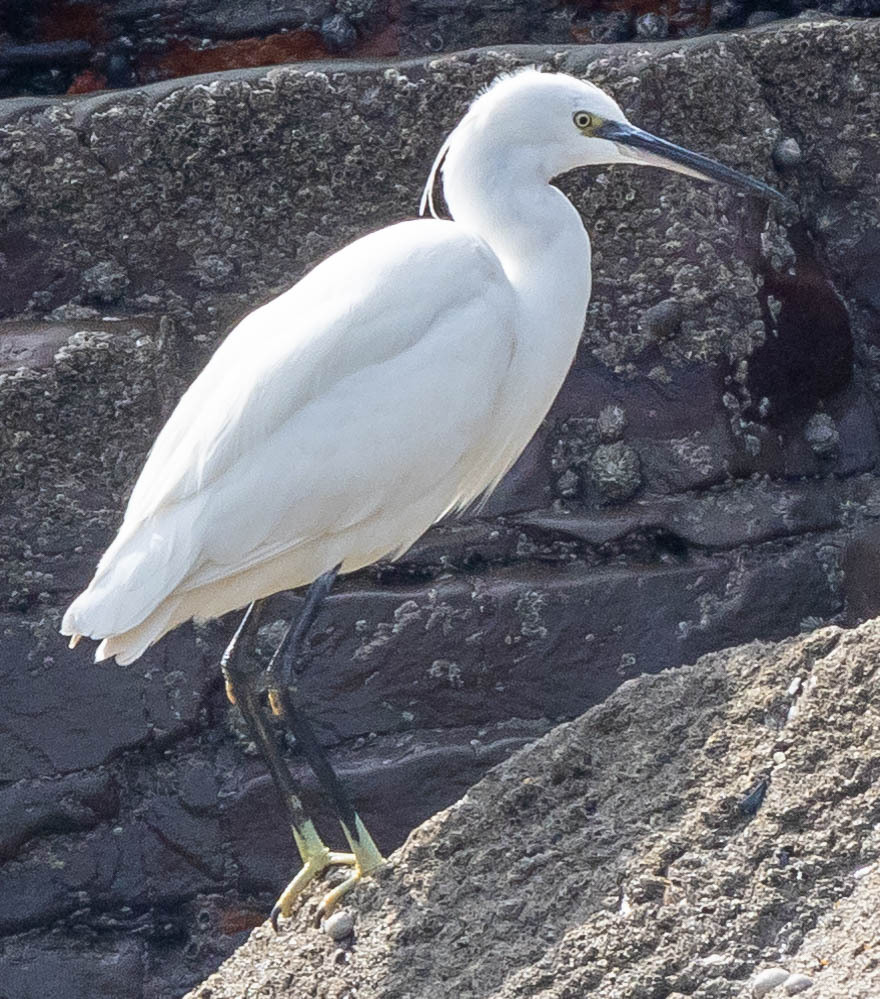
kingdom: Animalia
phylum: Chordata
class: Aves
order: Pelecaniformes
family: Ardeidae
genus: Egretta
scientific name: Egretta garzetta
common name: Little egret
